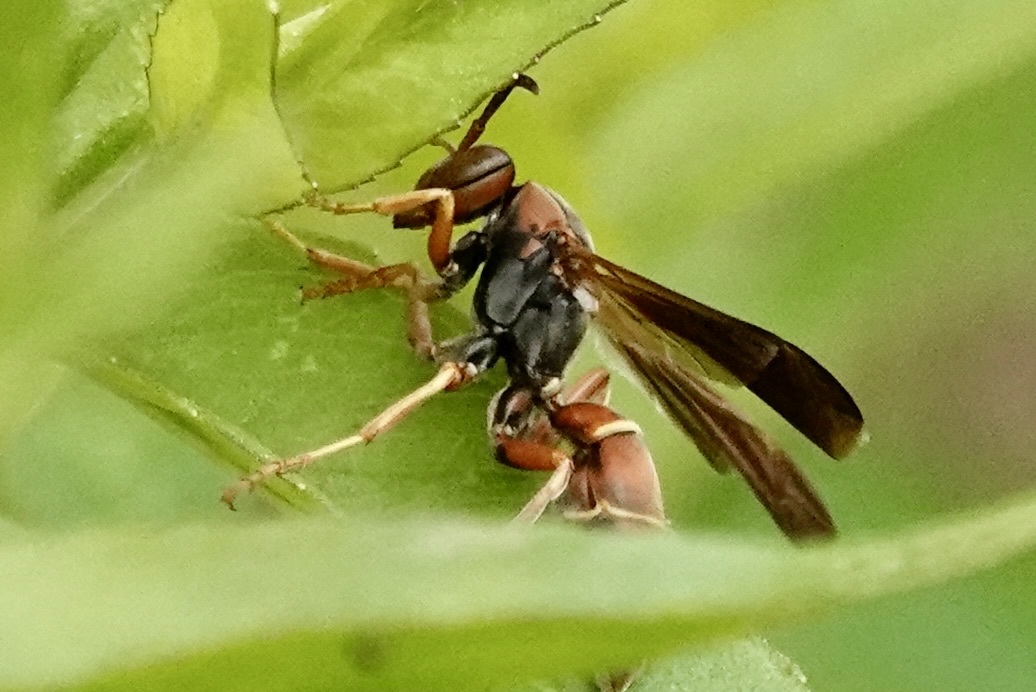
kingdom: Animalia
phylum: Arthropoda
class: Insecta
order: Hymenoptera
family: Eumenidae
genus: Polistes
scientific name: Polistes fuscatus
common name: Dark paper wasp
